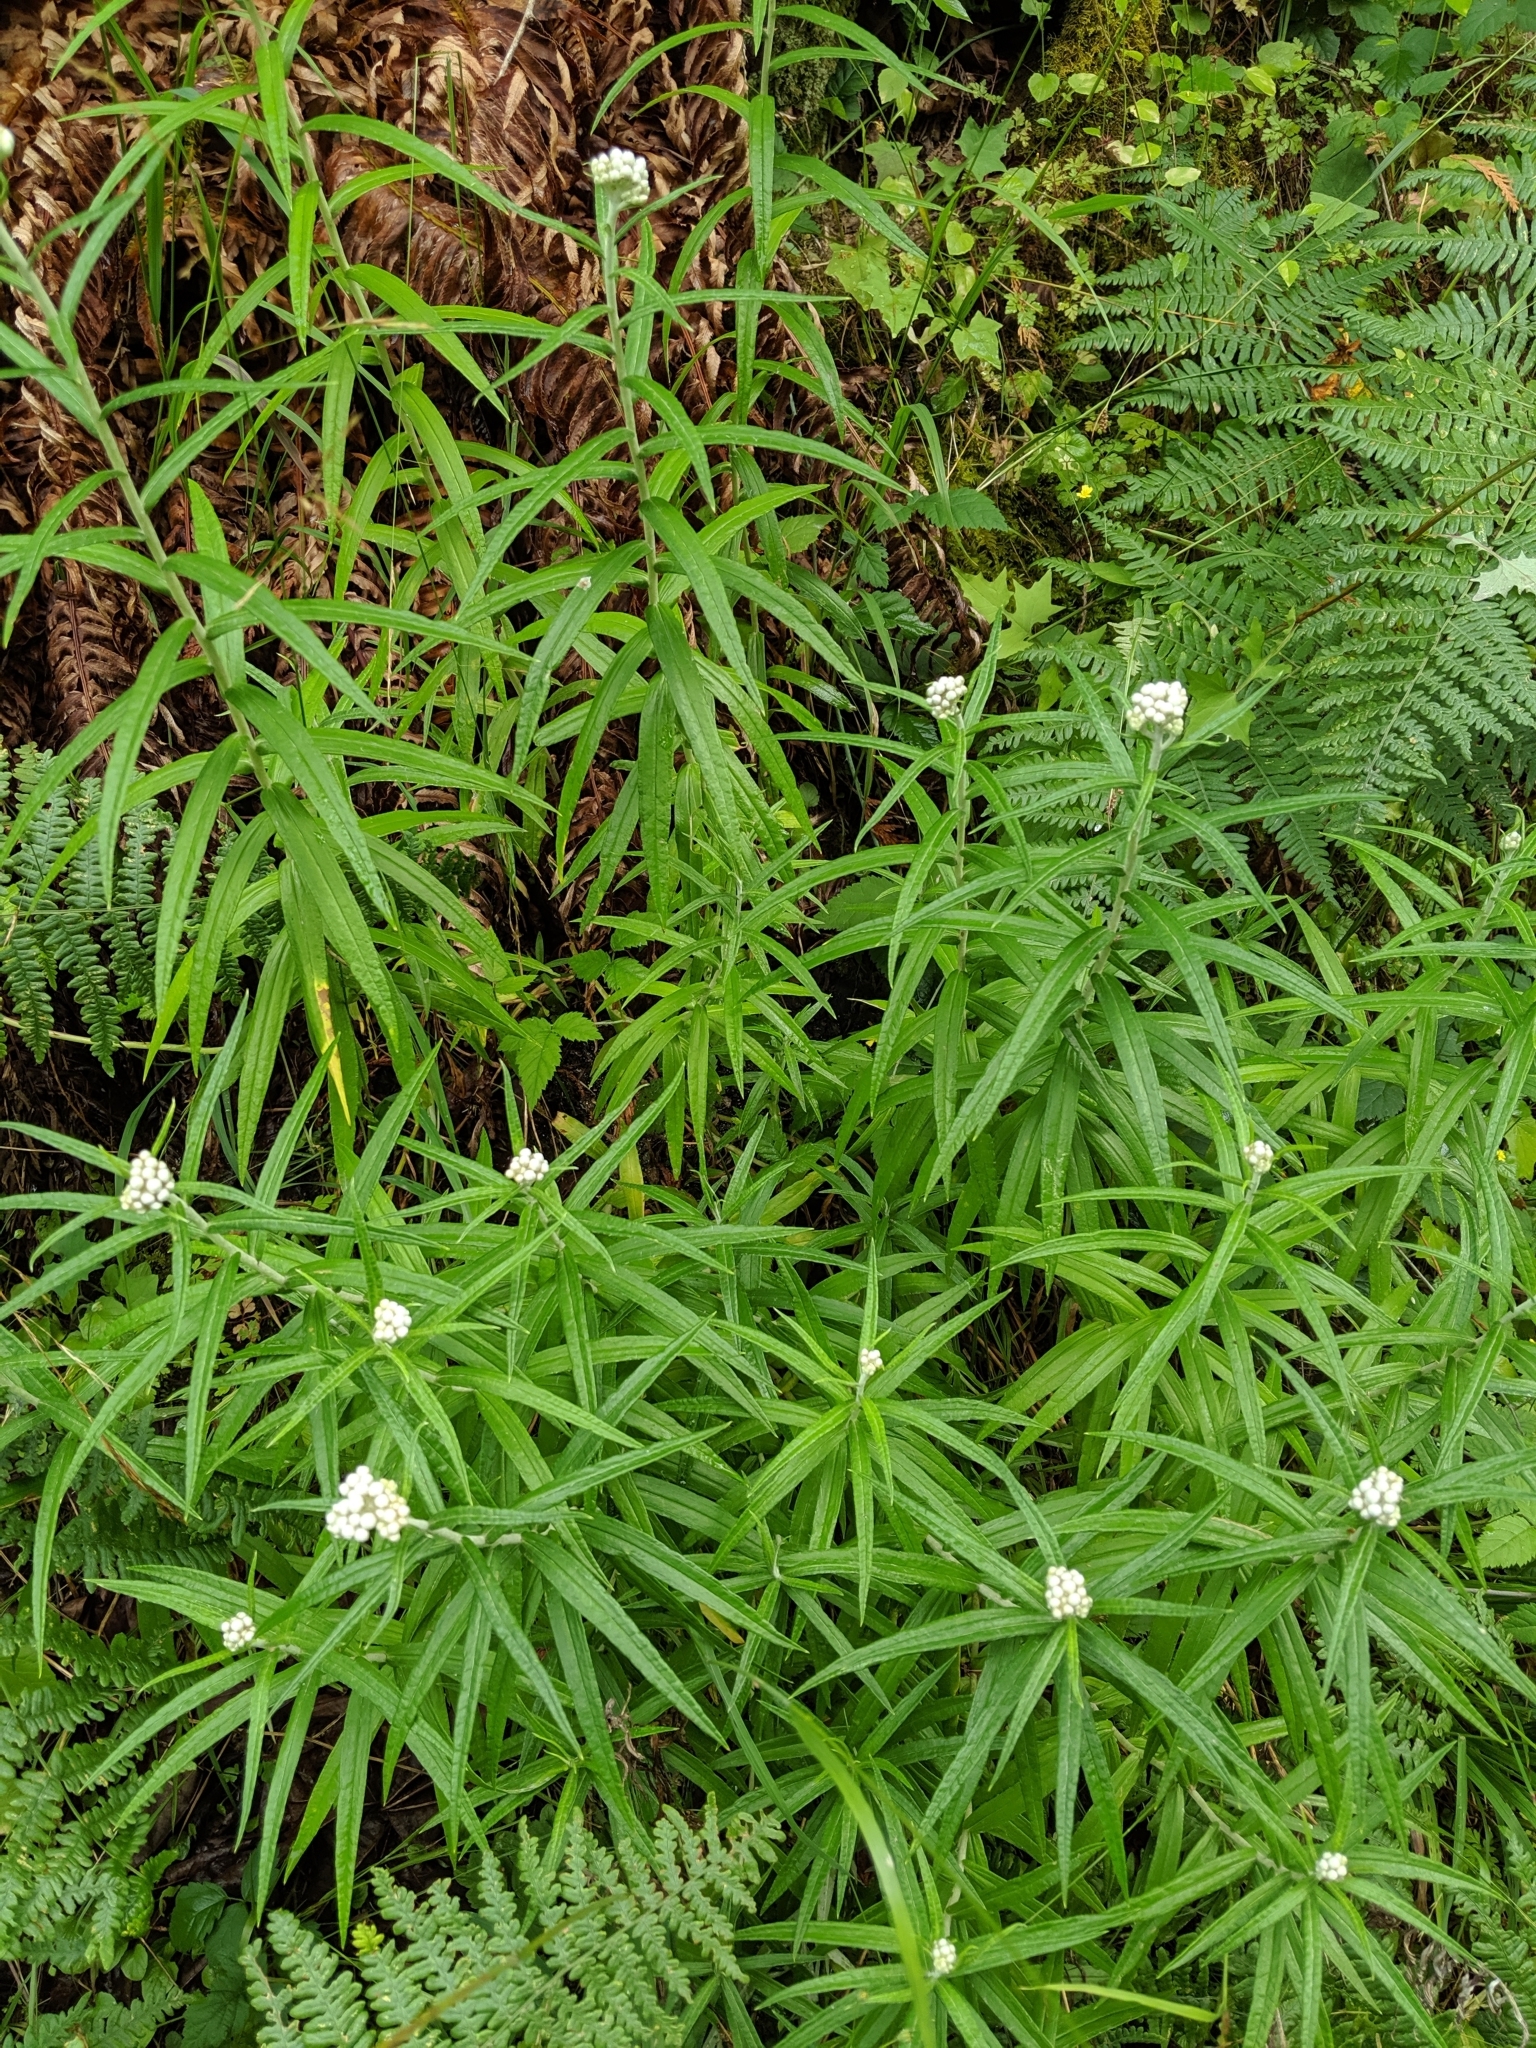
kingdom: Plantae
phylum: Tracheophyta
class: Magnoliopsida
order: Asterales
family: Asteraceae
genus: Anaphalis
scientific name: Anaphalis margaritacea
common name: Pearly everlasting
